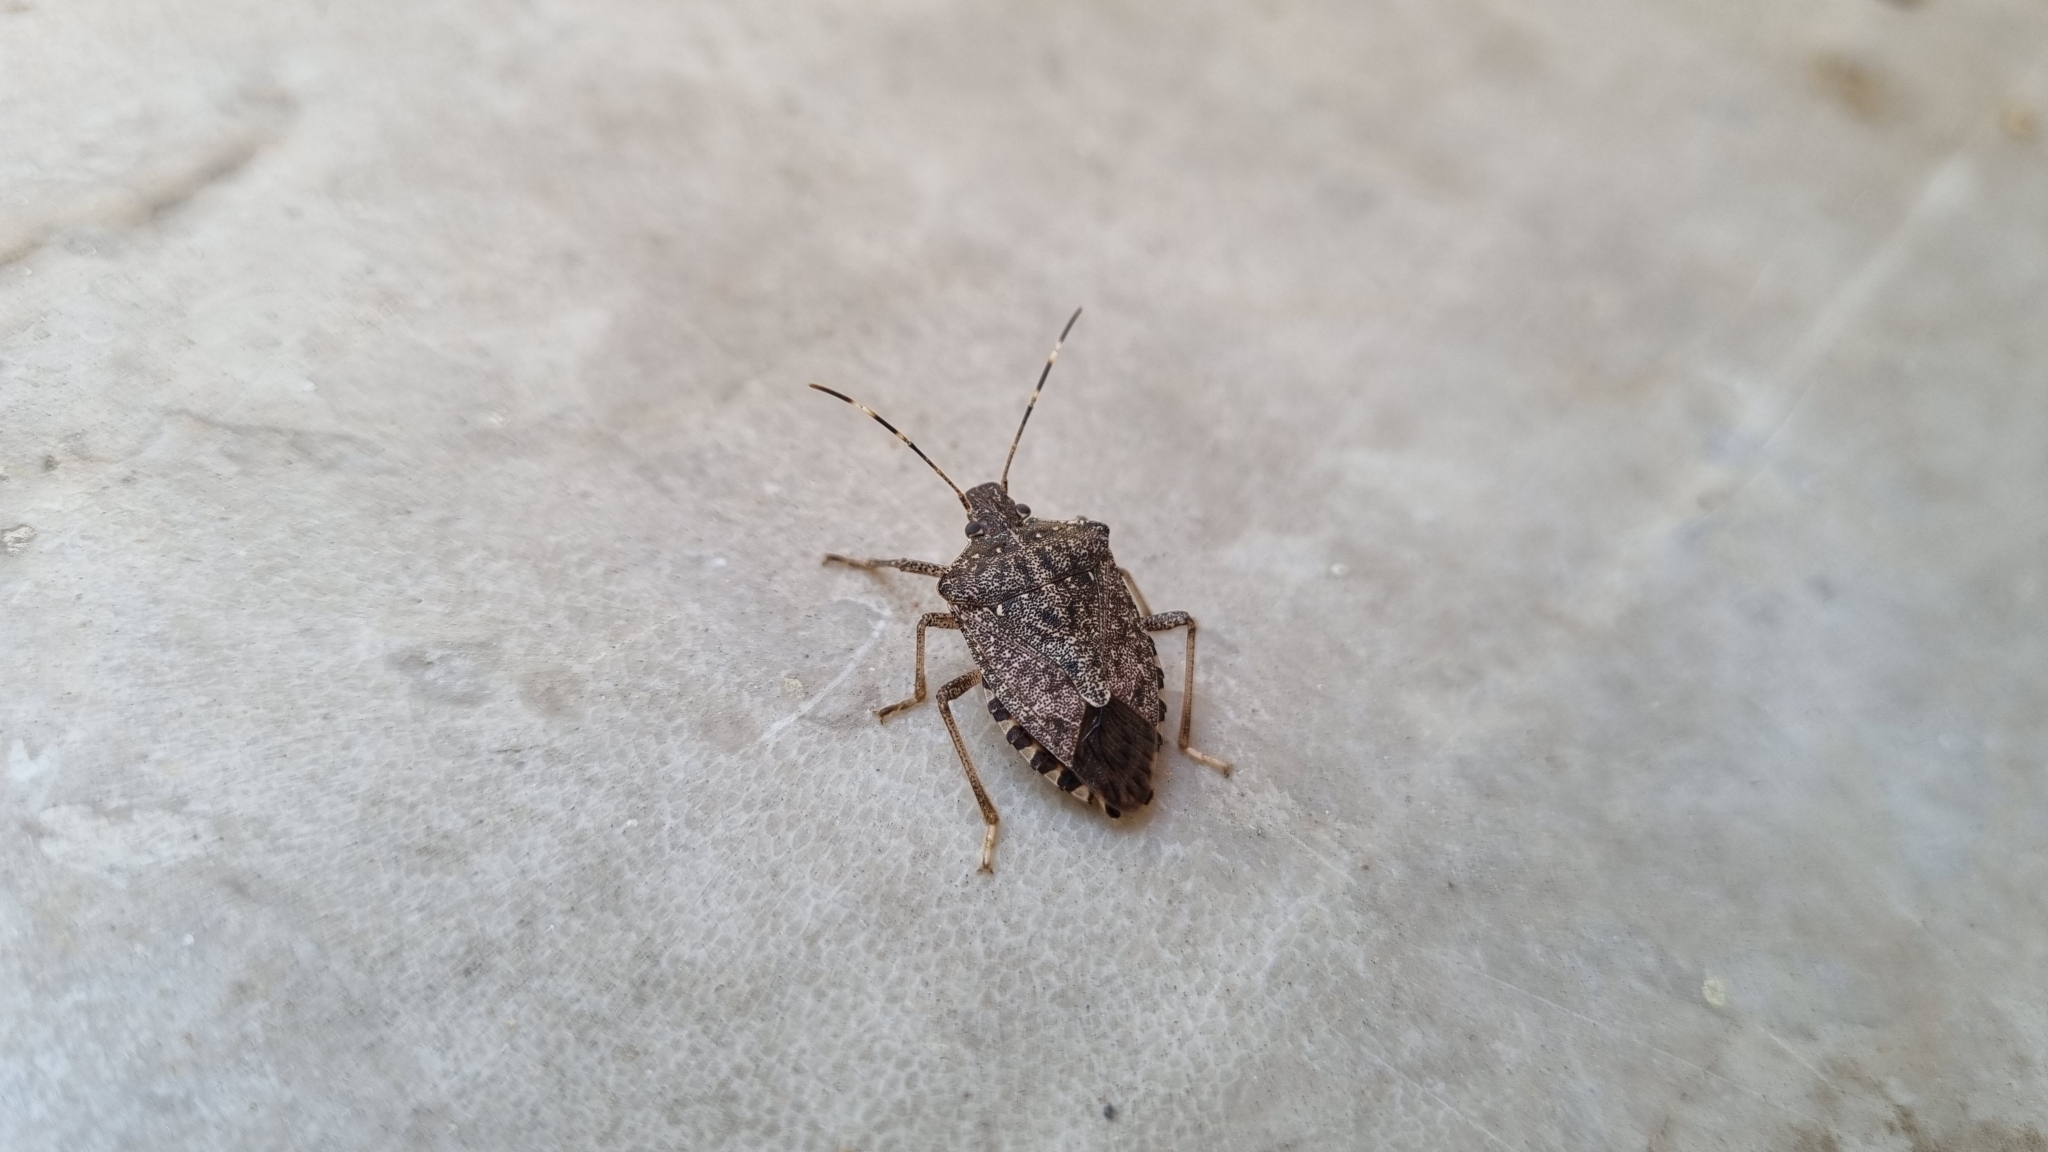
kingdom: Animalia
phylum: Arthropoda
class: Insecta
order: Hemiptera
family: Pentatomidae
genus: Halyomorpha
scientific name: Halyomorpha halys
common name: Brown marmorated stink bug
